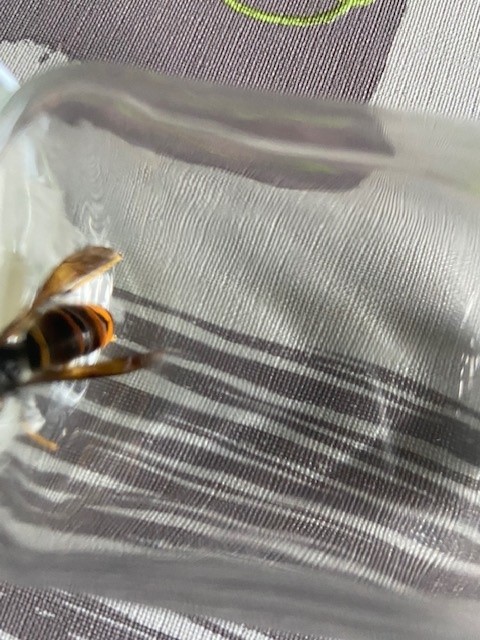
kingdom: Animalia
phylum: Arthropoda
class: Insecta
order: Hymenoptera
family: Vespidae
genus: Vespa
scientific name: Vespa velutina
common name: Asian hornet
